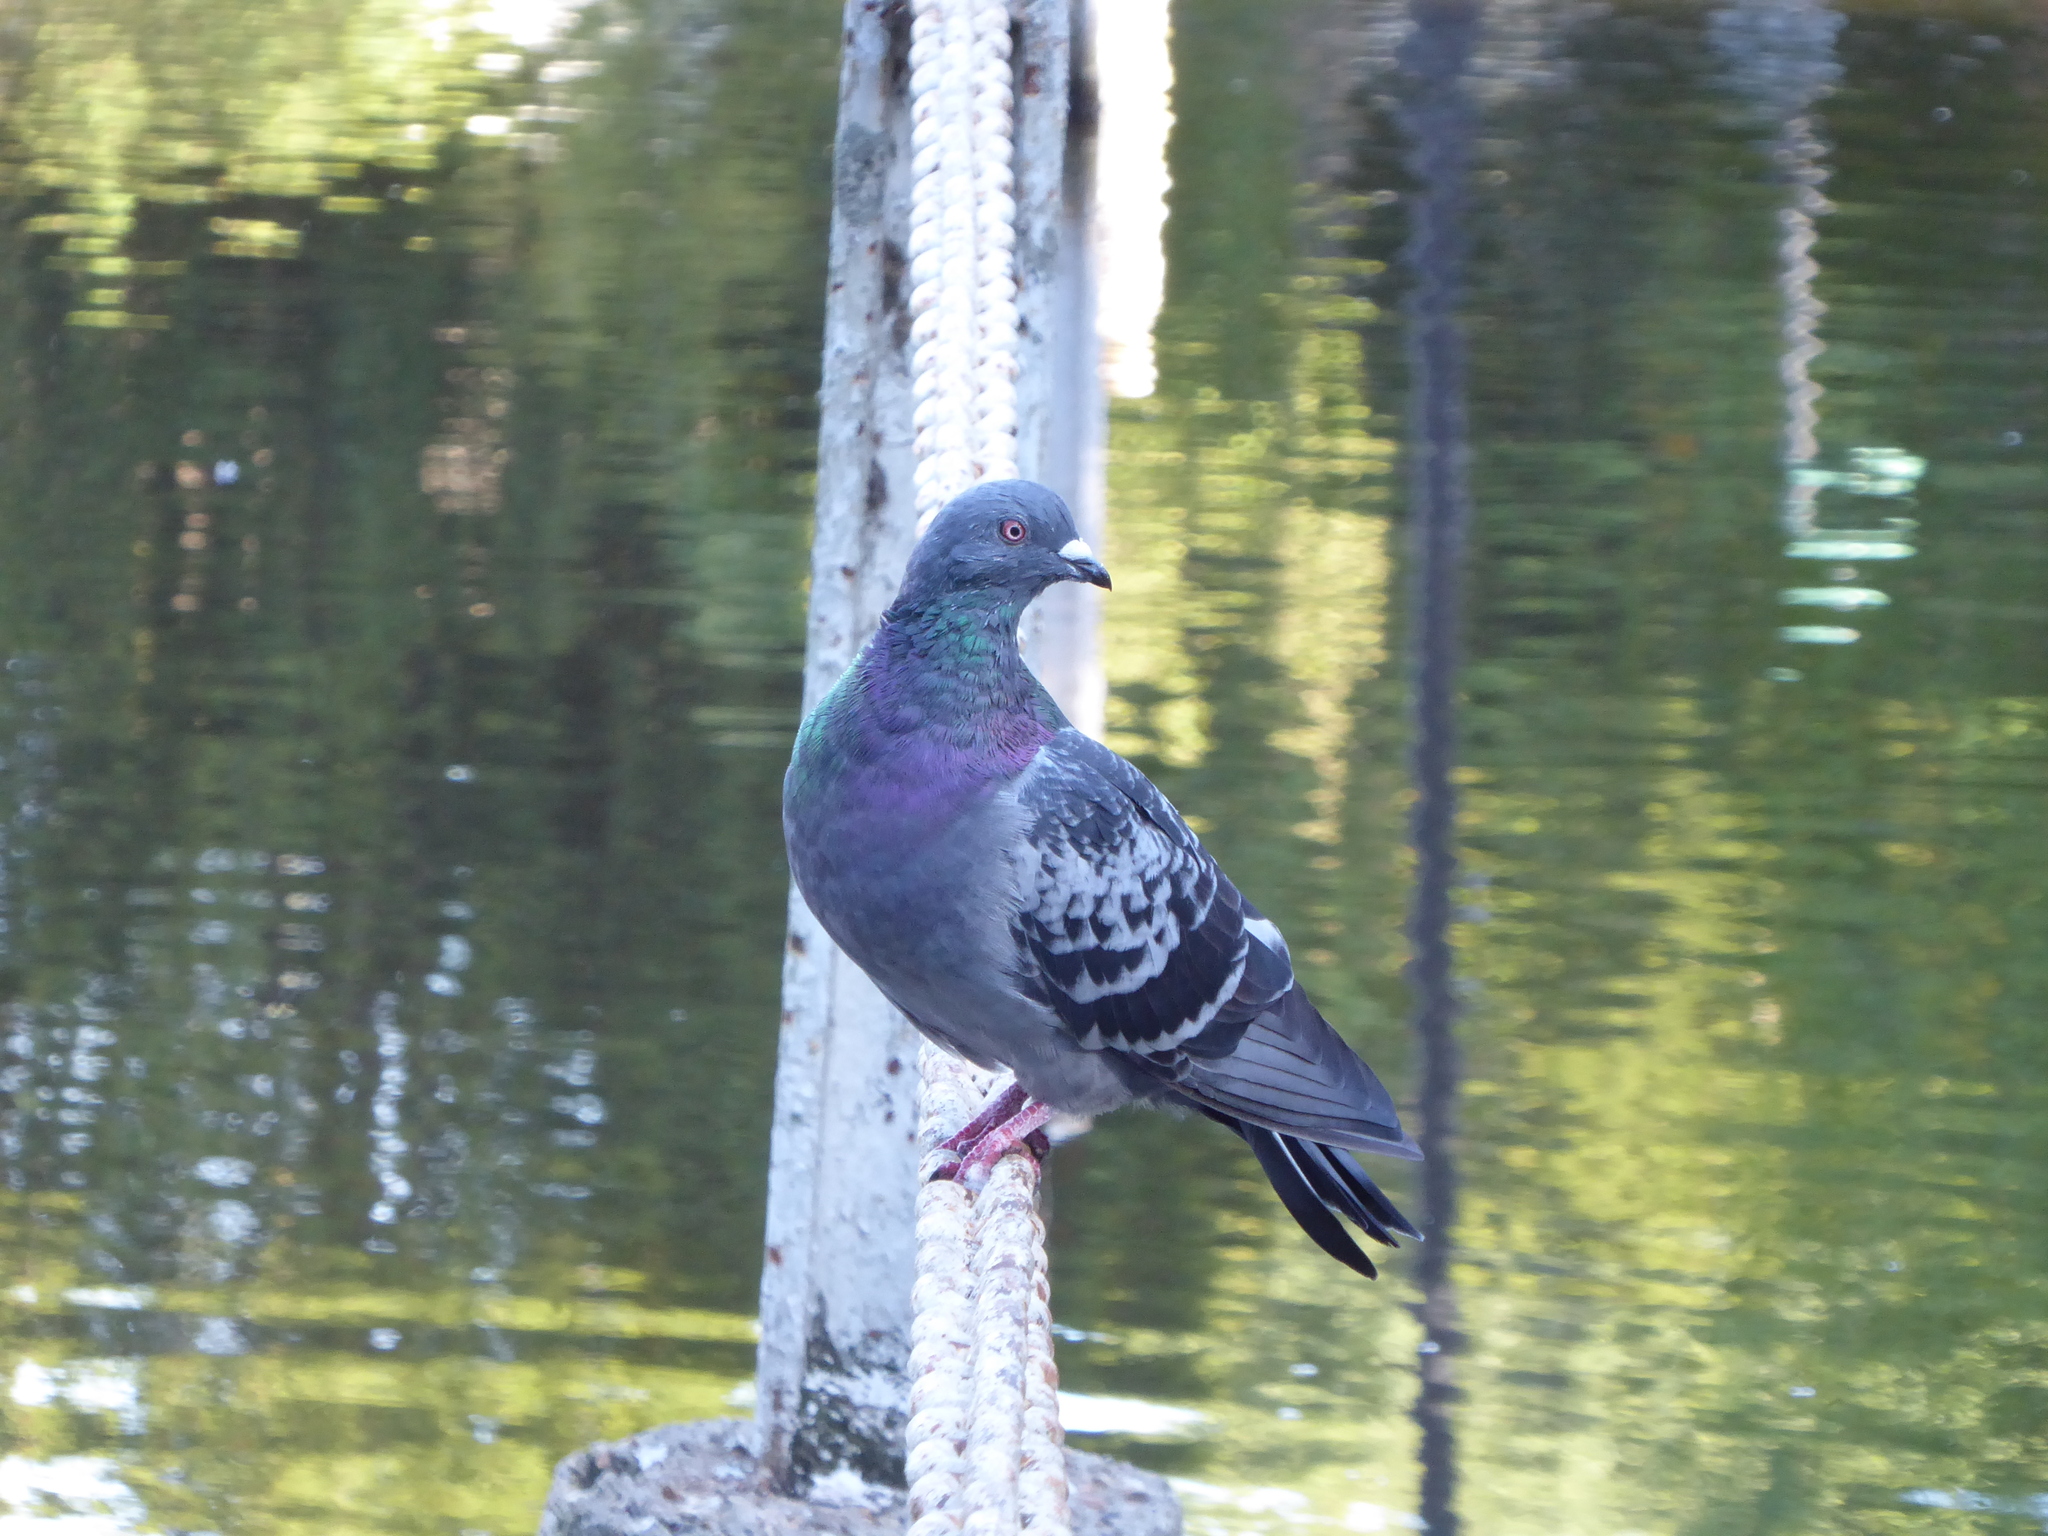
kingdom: Animalia
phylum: Chordata
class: Aves
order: Columbiformes
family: Columbidae
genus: Columba
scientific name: Columba livia
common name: Rock pigeon
